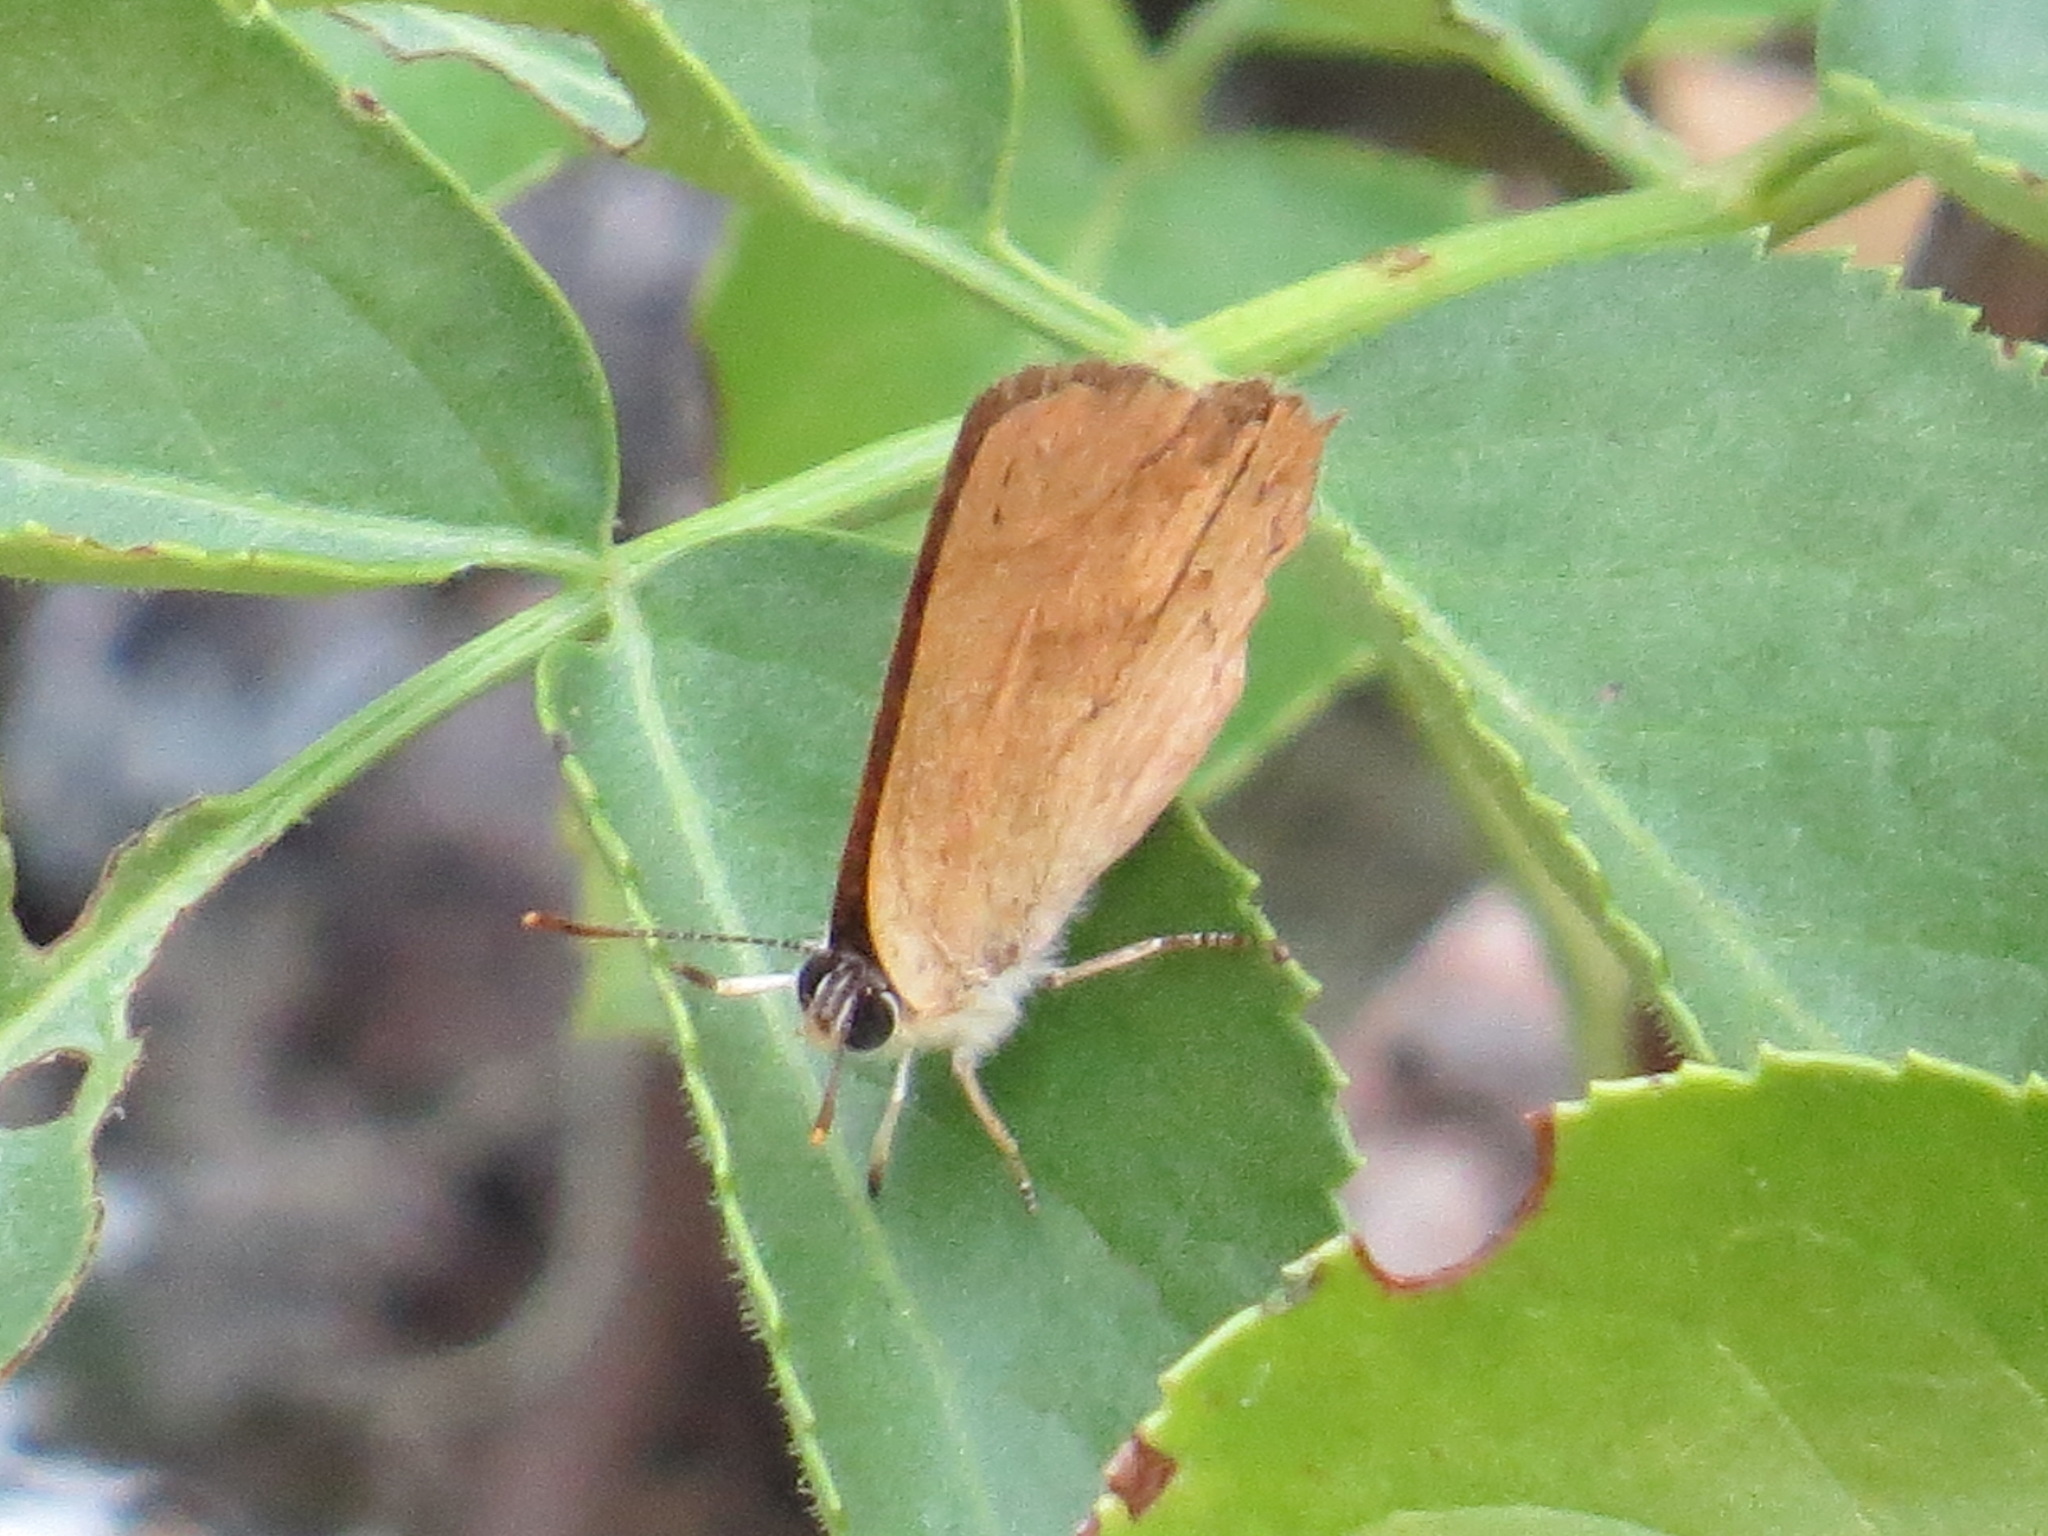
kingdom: Animalia
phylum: Arthropoda
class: Insecta
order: Lepidoptera
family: Lycaenidae
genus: Habrodais
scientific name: Habrodais grunus
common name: Golden hairstreak
